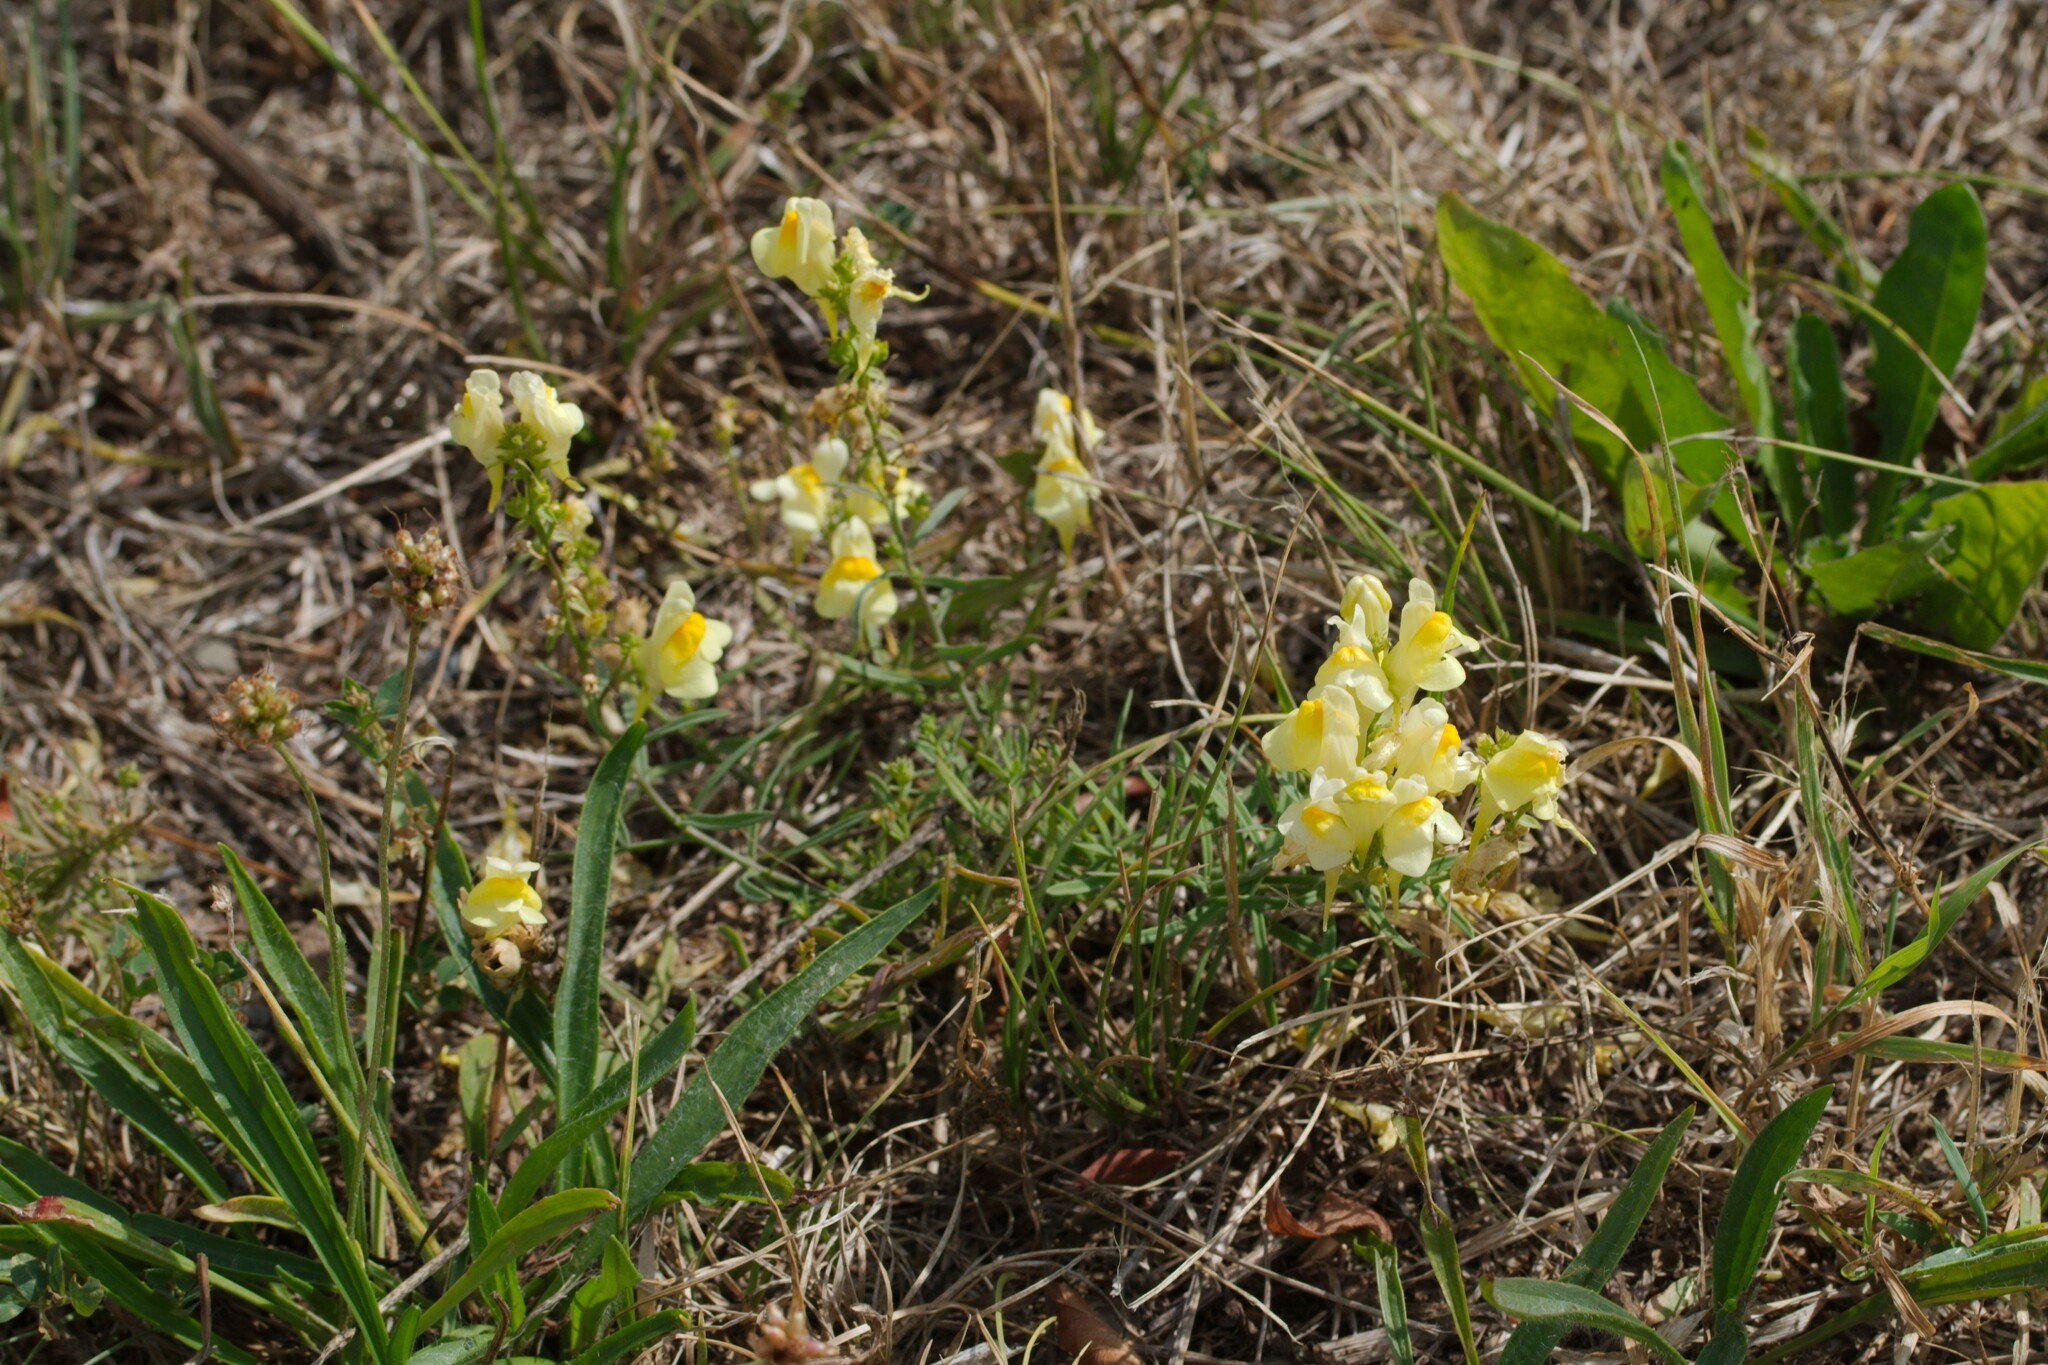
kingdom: Plantae
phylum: Tracheophyta
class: Magnoliopsida
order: Lamiales
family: Plantaginaceae
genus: Linaria
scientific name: Linaria vulgaris
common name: Butter and eggs
